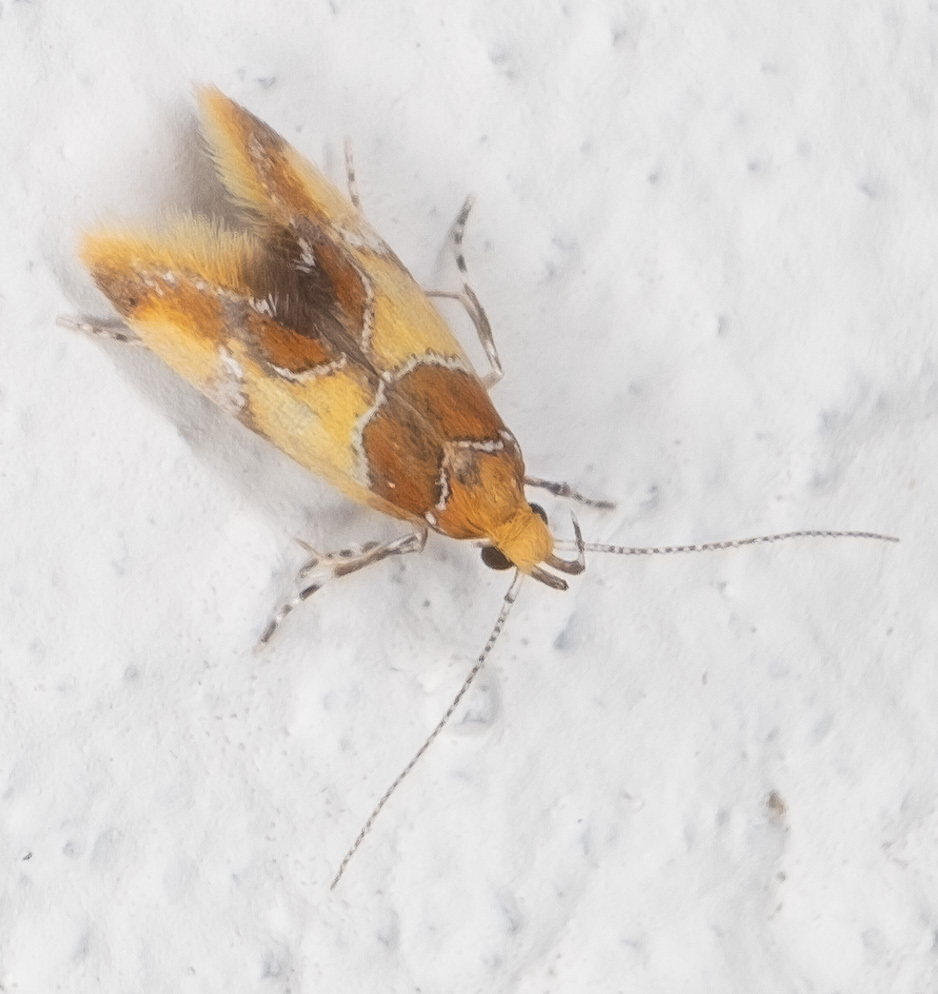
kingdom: Animalia
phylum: Arthropoda
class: Insecta
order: Lepidoptera
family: Oecophoridae
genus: Callima
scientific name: Callima argenticinctella
